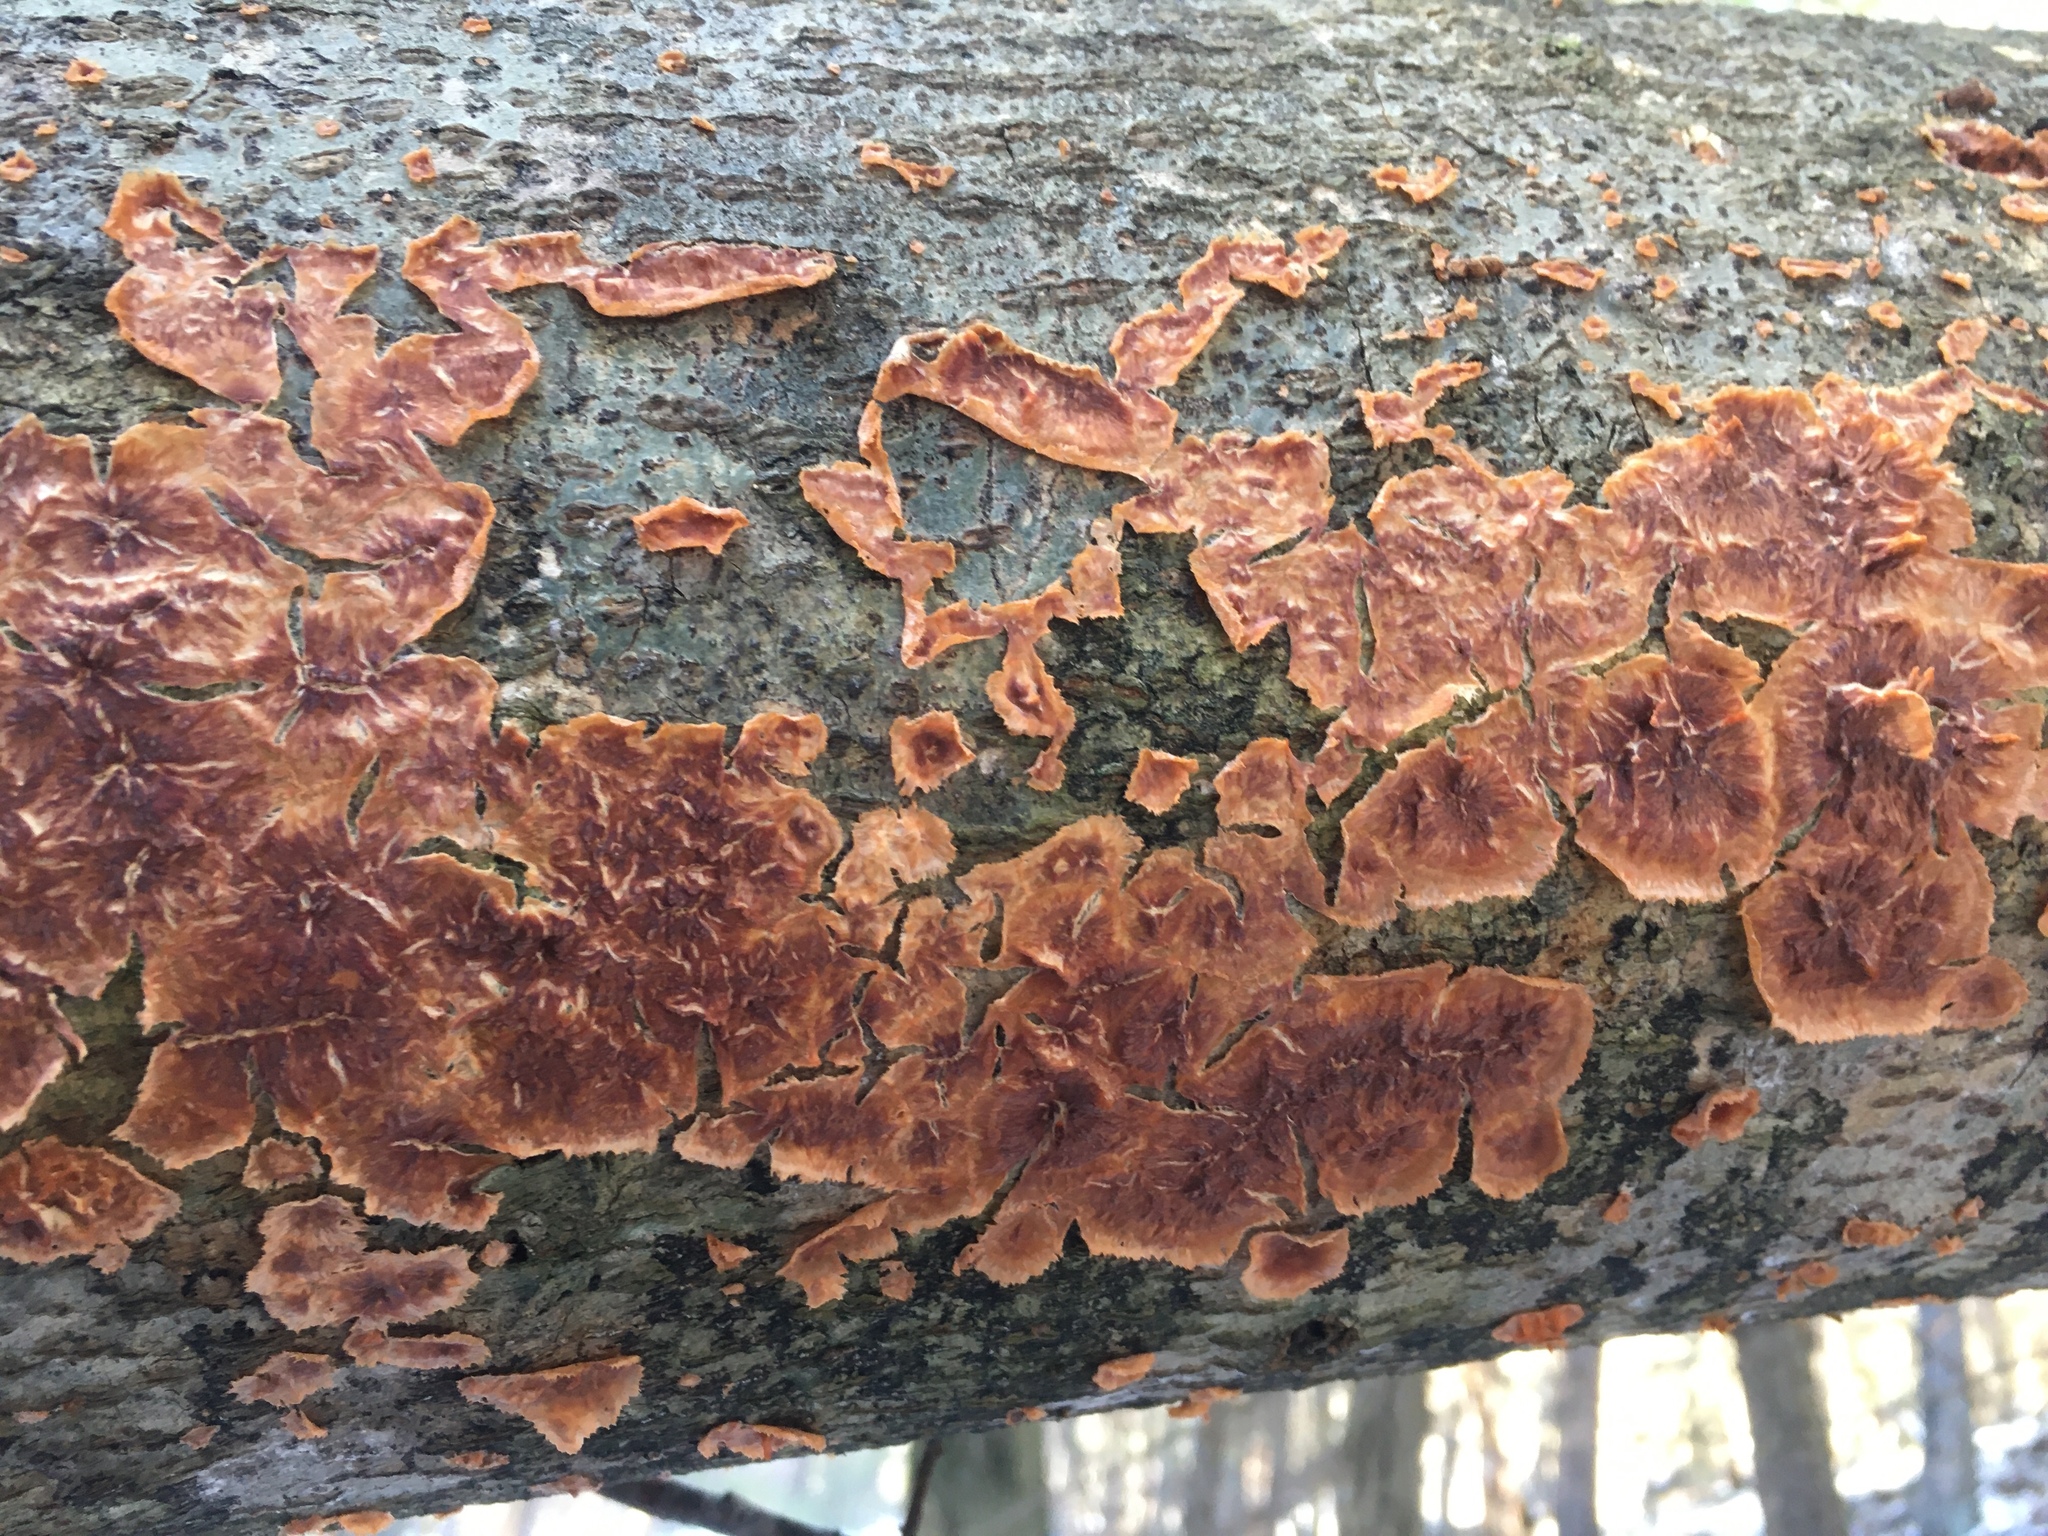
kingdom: Fungi
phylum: Basidiomycota
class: Agaricomycetes
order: Polyporales
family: Meruliaceae
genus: Phlebia
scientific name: Phlebia radiata
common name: Wrinkled crust
